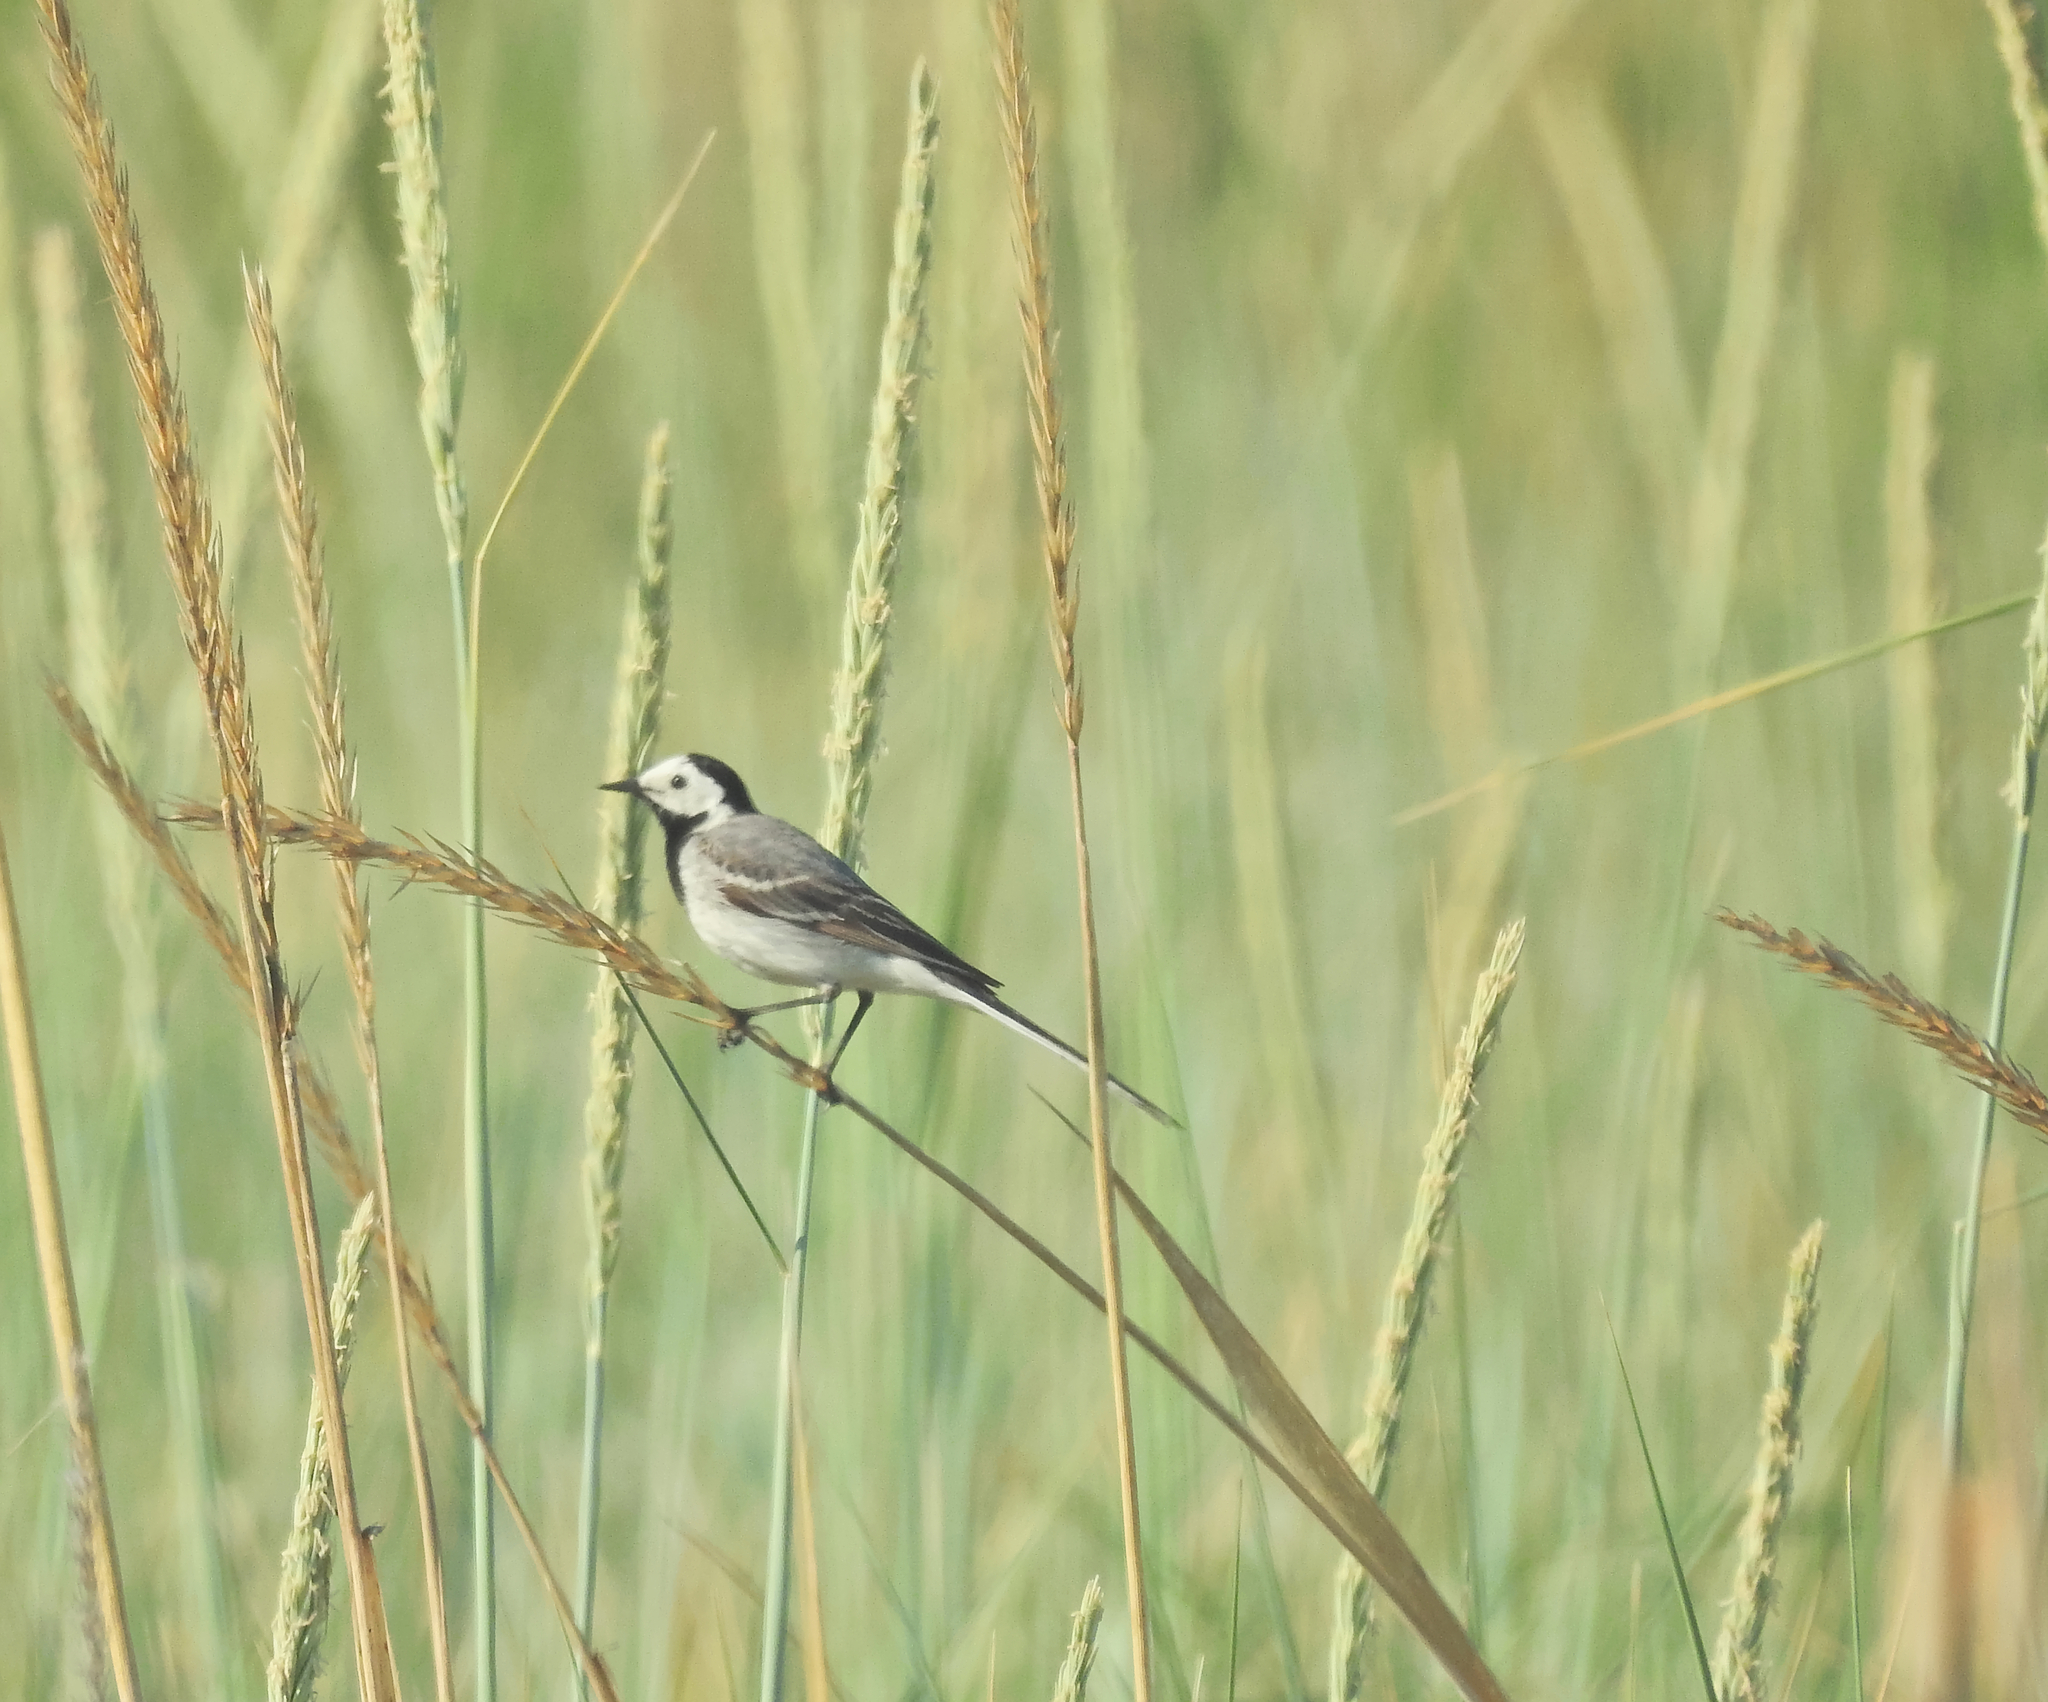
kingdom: Animalia
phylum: Chordata
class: Aves
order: Passeriformes
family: Motacillidae
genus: Motacilla
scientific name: Motacilla alba
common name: White wagtail
